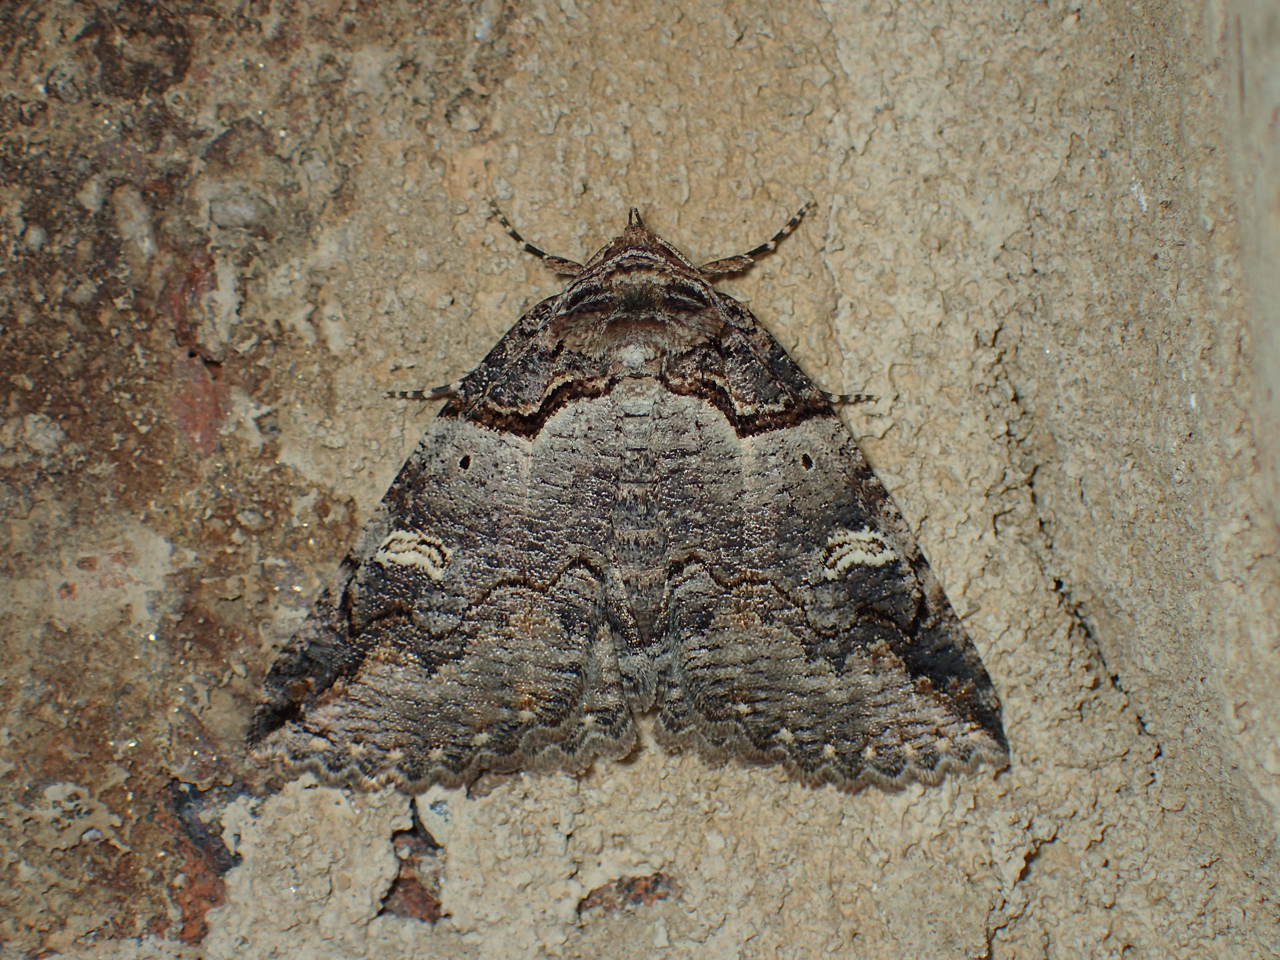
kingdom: Animalia
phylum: Arthropoda
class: Insecta
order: Lepidoptera
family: Erebidae
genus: Zale
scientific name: Zale intenta
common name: Intent zale moth
